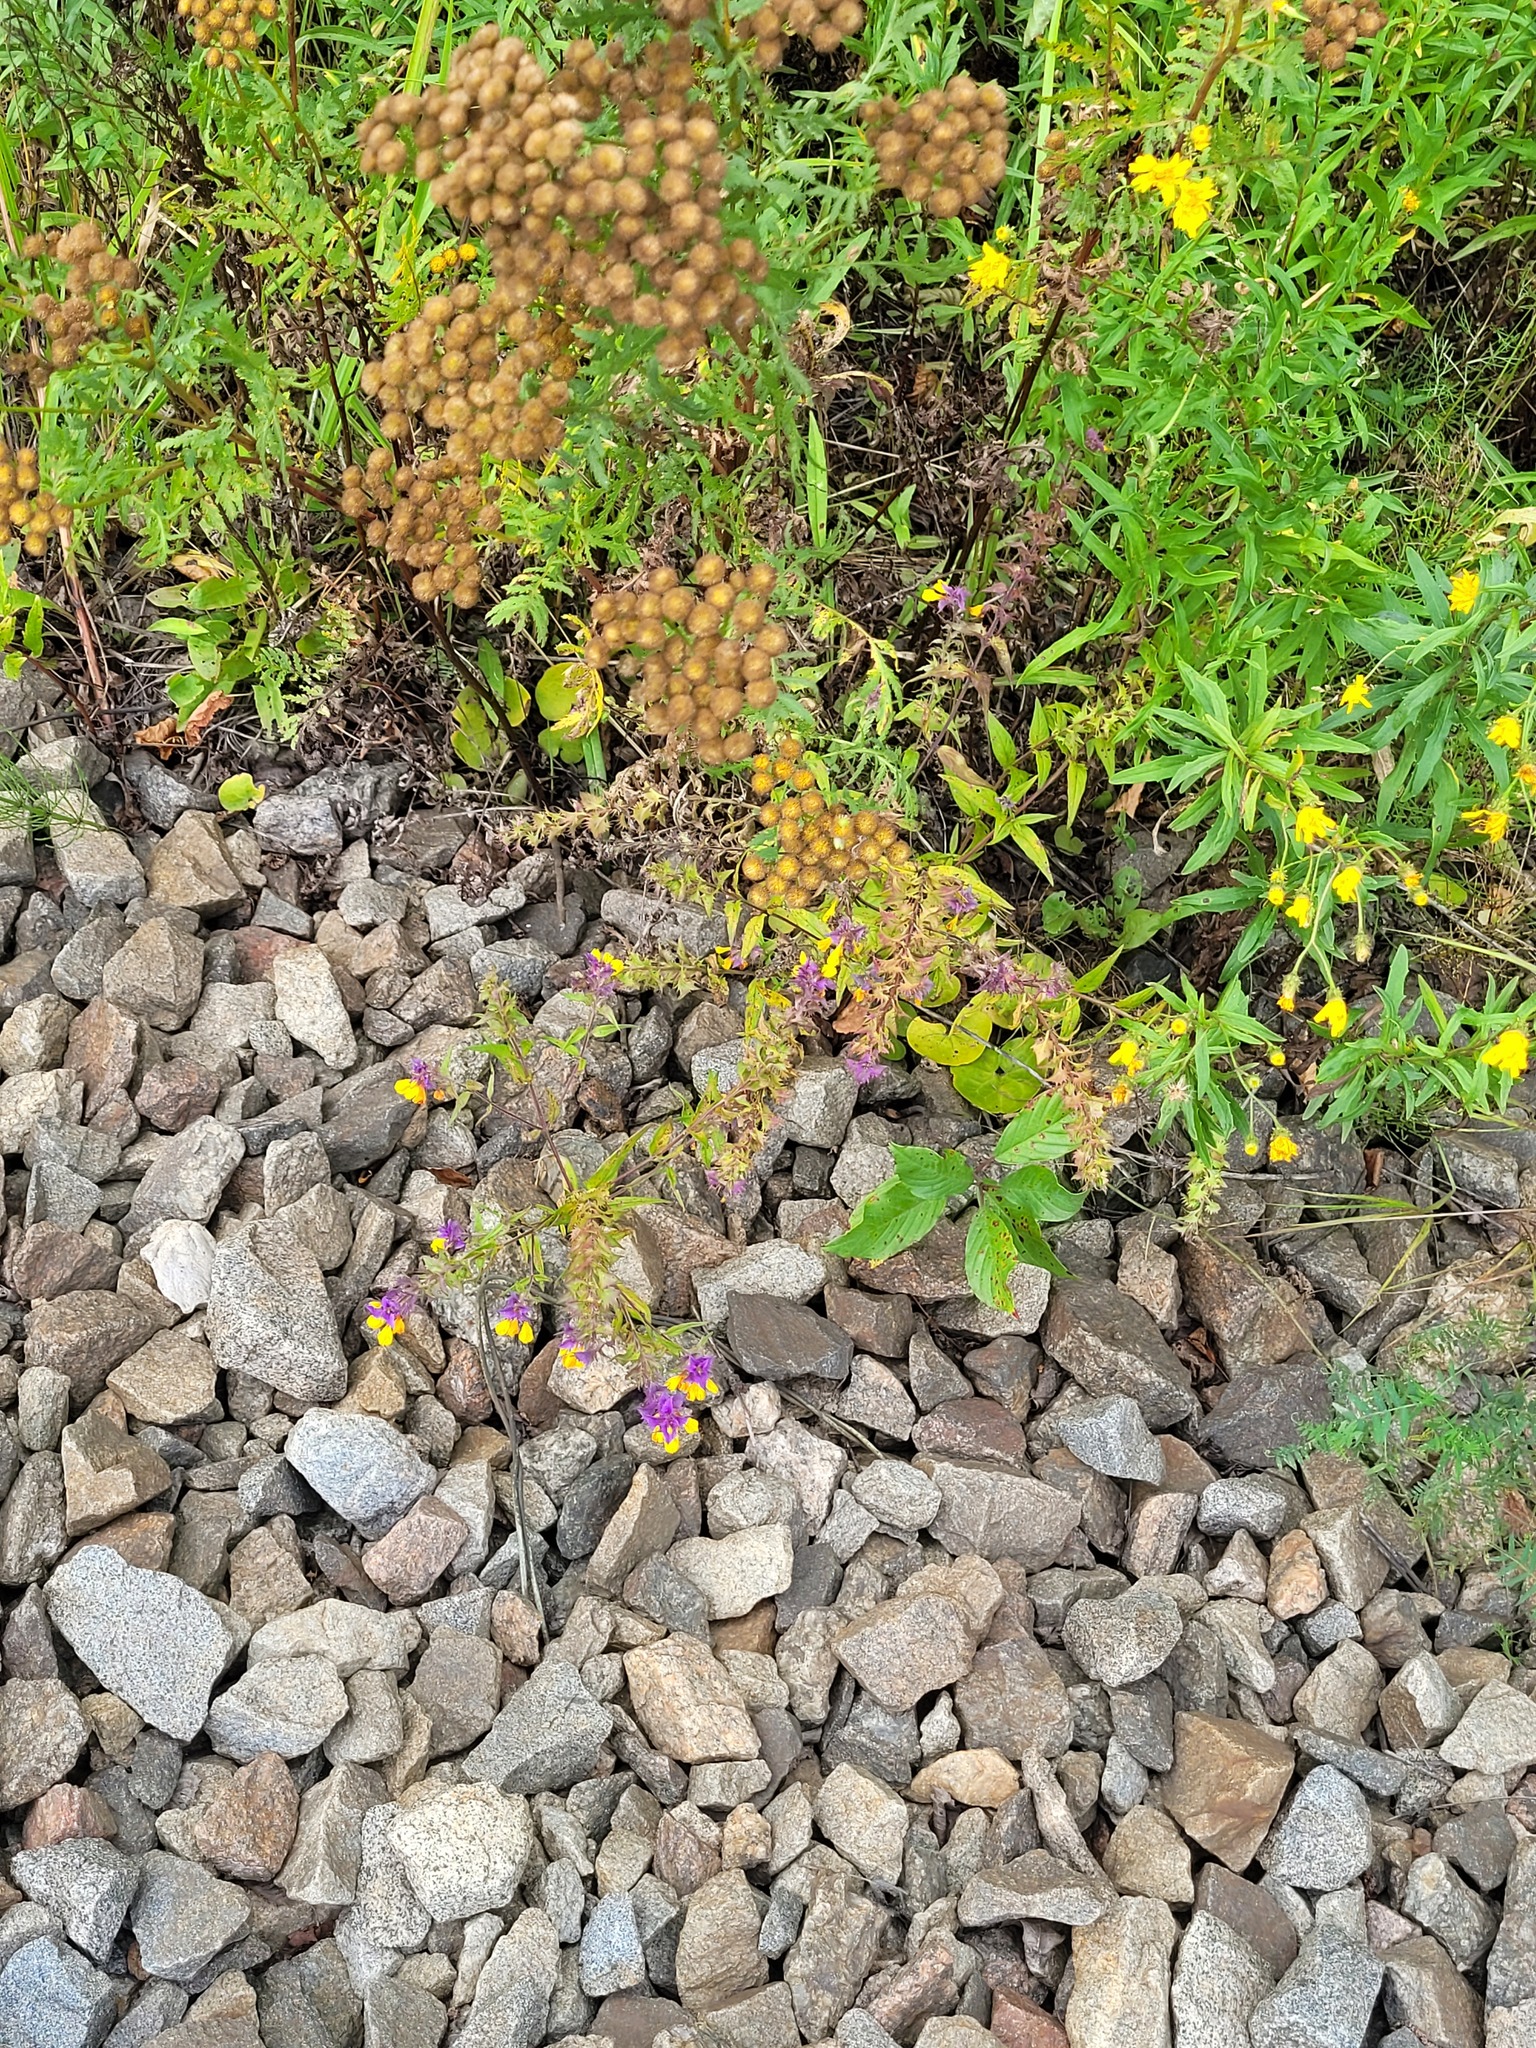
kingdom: Plantae
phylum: Tracheophyta
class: Magnoliopsida
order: Lamiales
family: Orobanchaceae
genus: Melampyrum
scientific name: Melampyrum nemorosum
